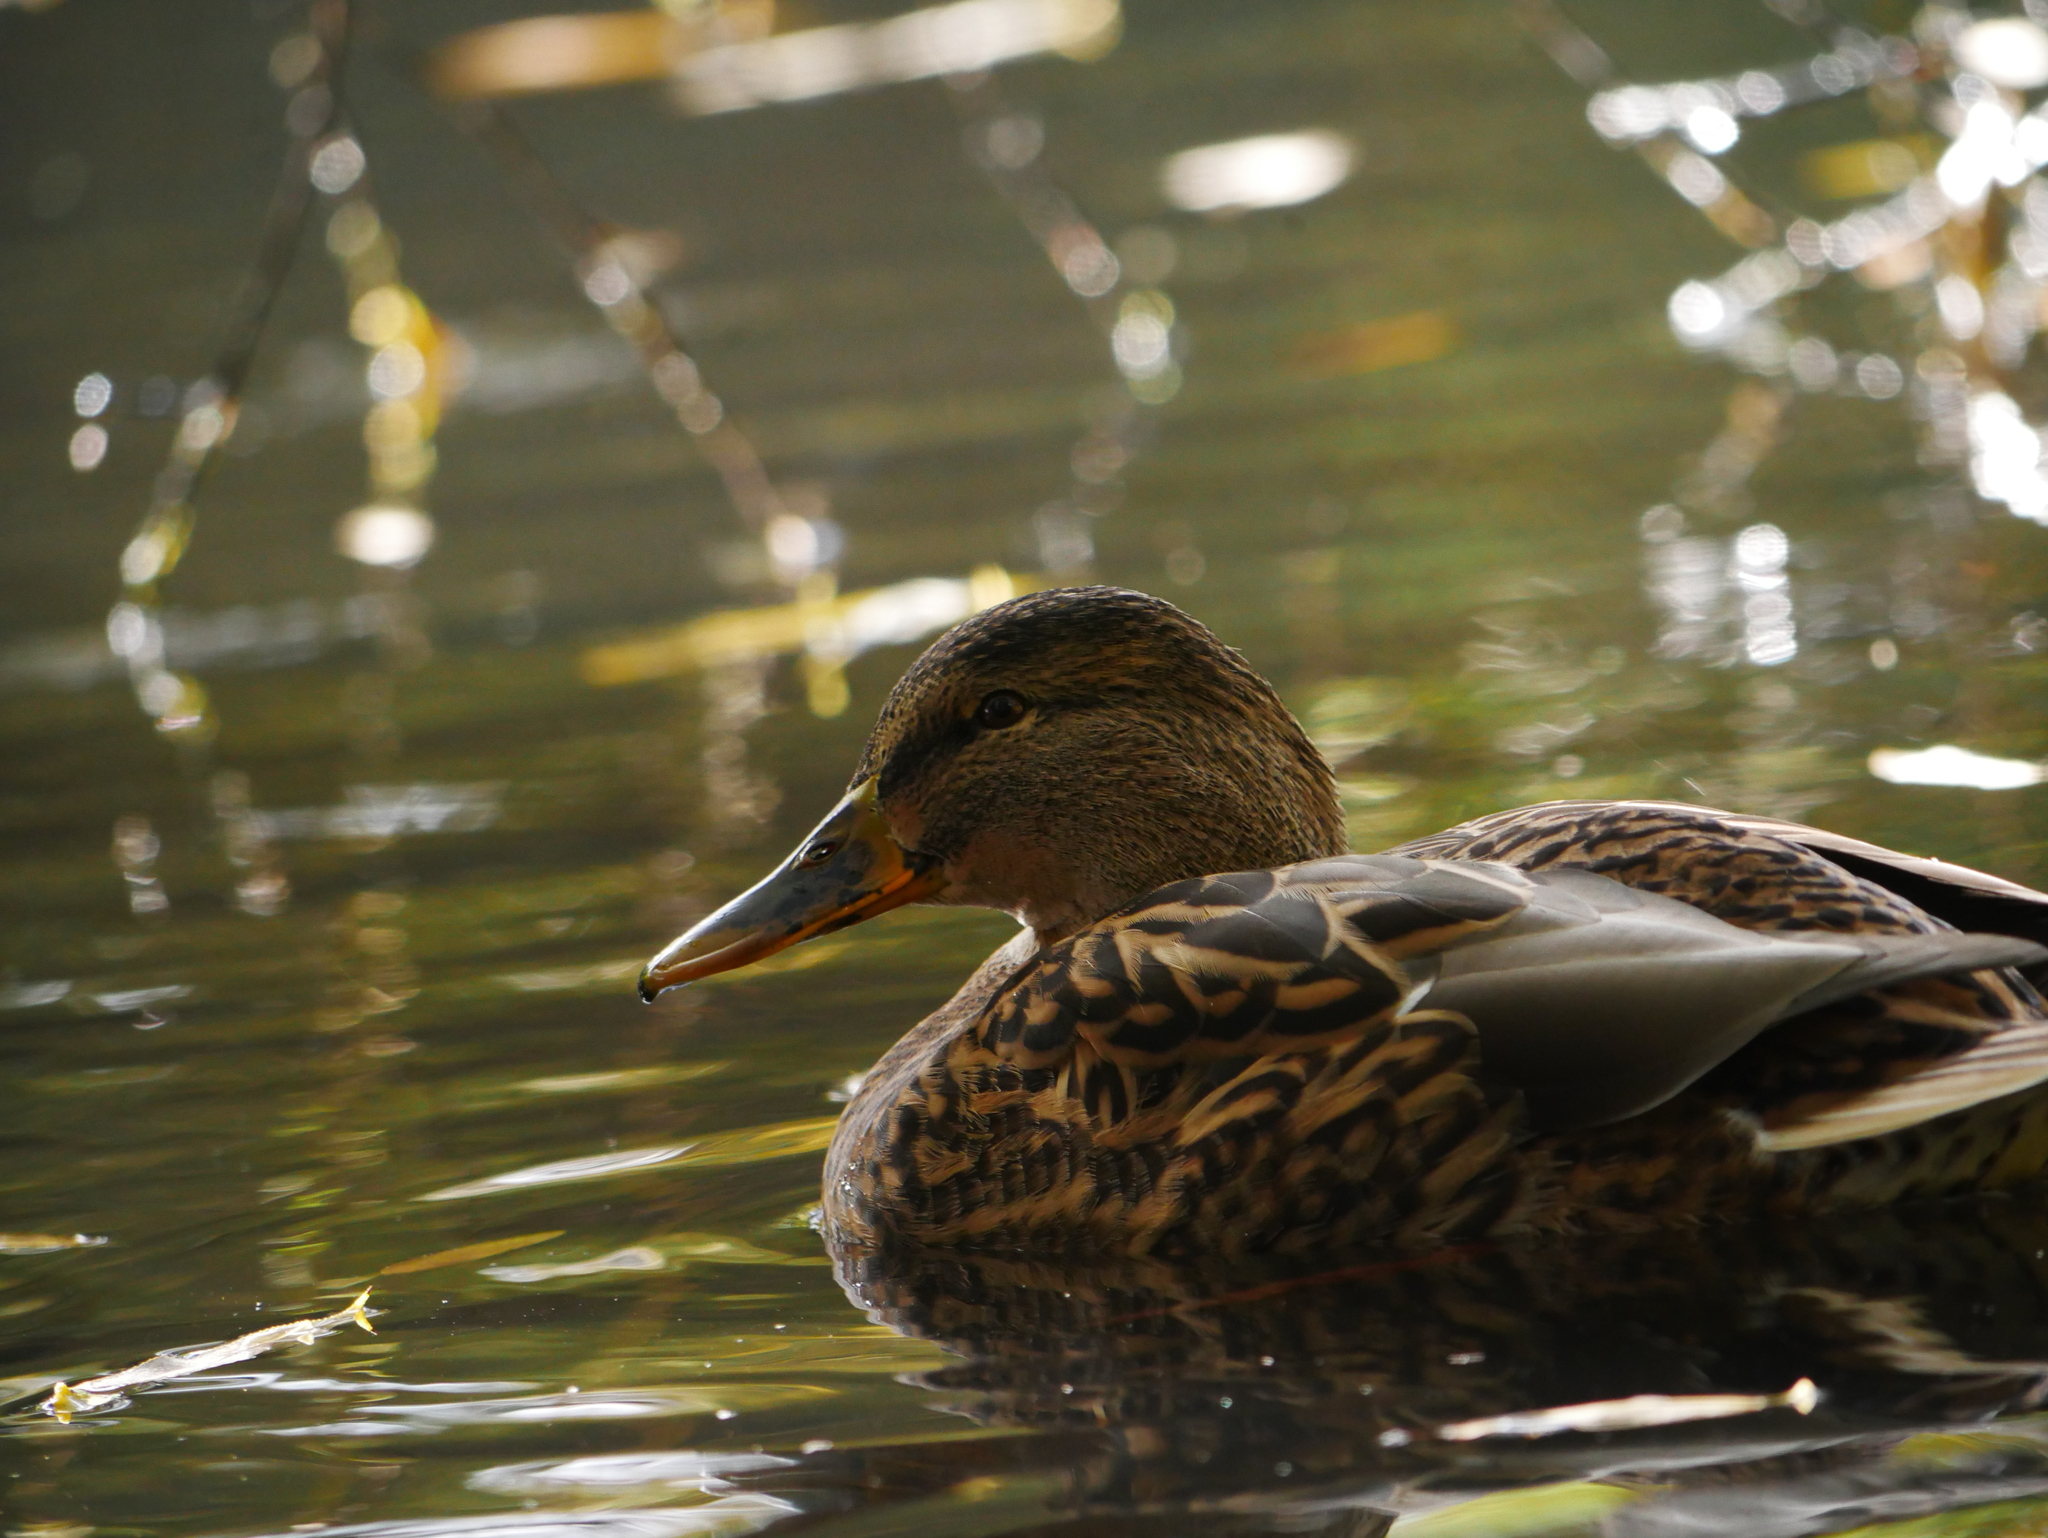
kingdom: Animalia
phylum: Chordata
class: Aves
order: Anseriformes
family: Anatidae
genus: Anas
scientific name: Anas platyrhynchos
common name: Mallard
